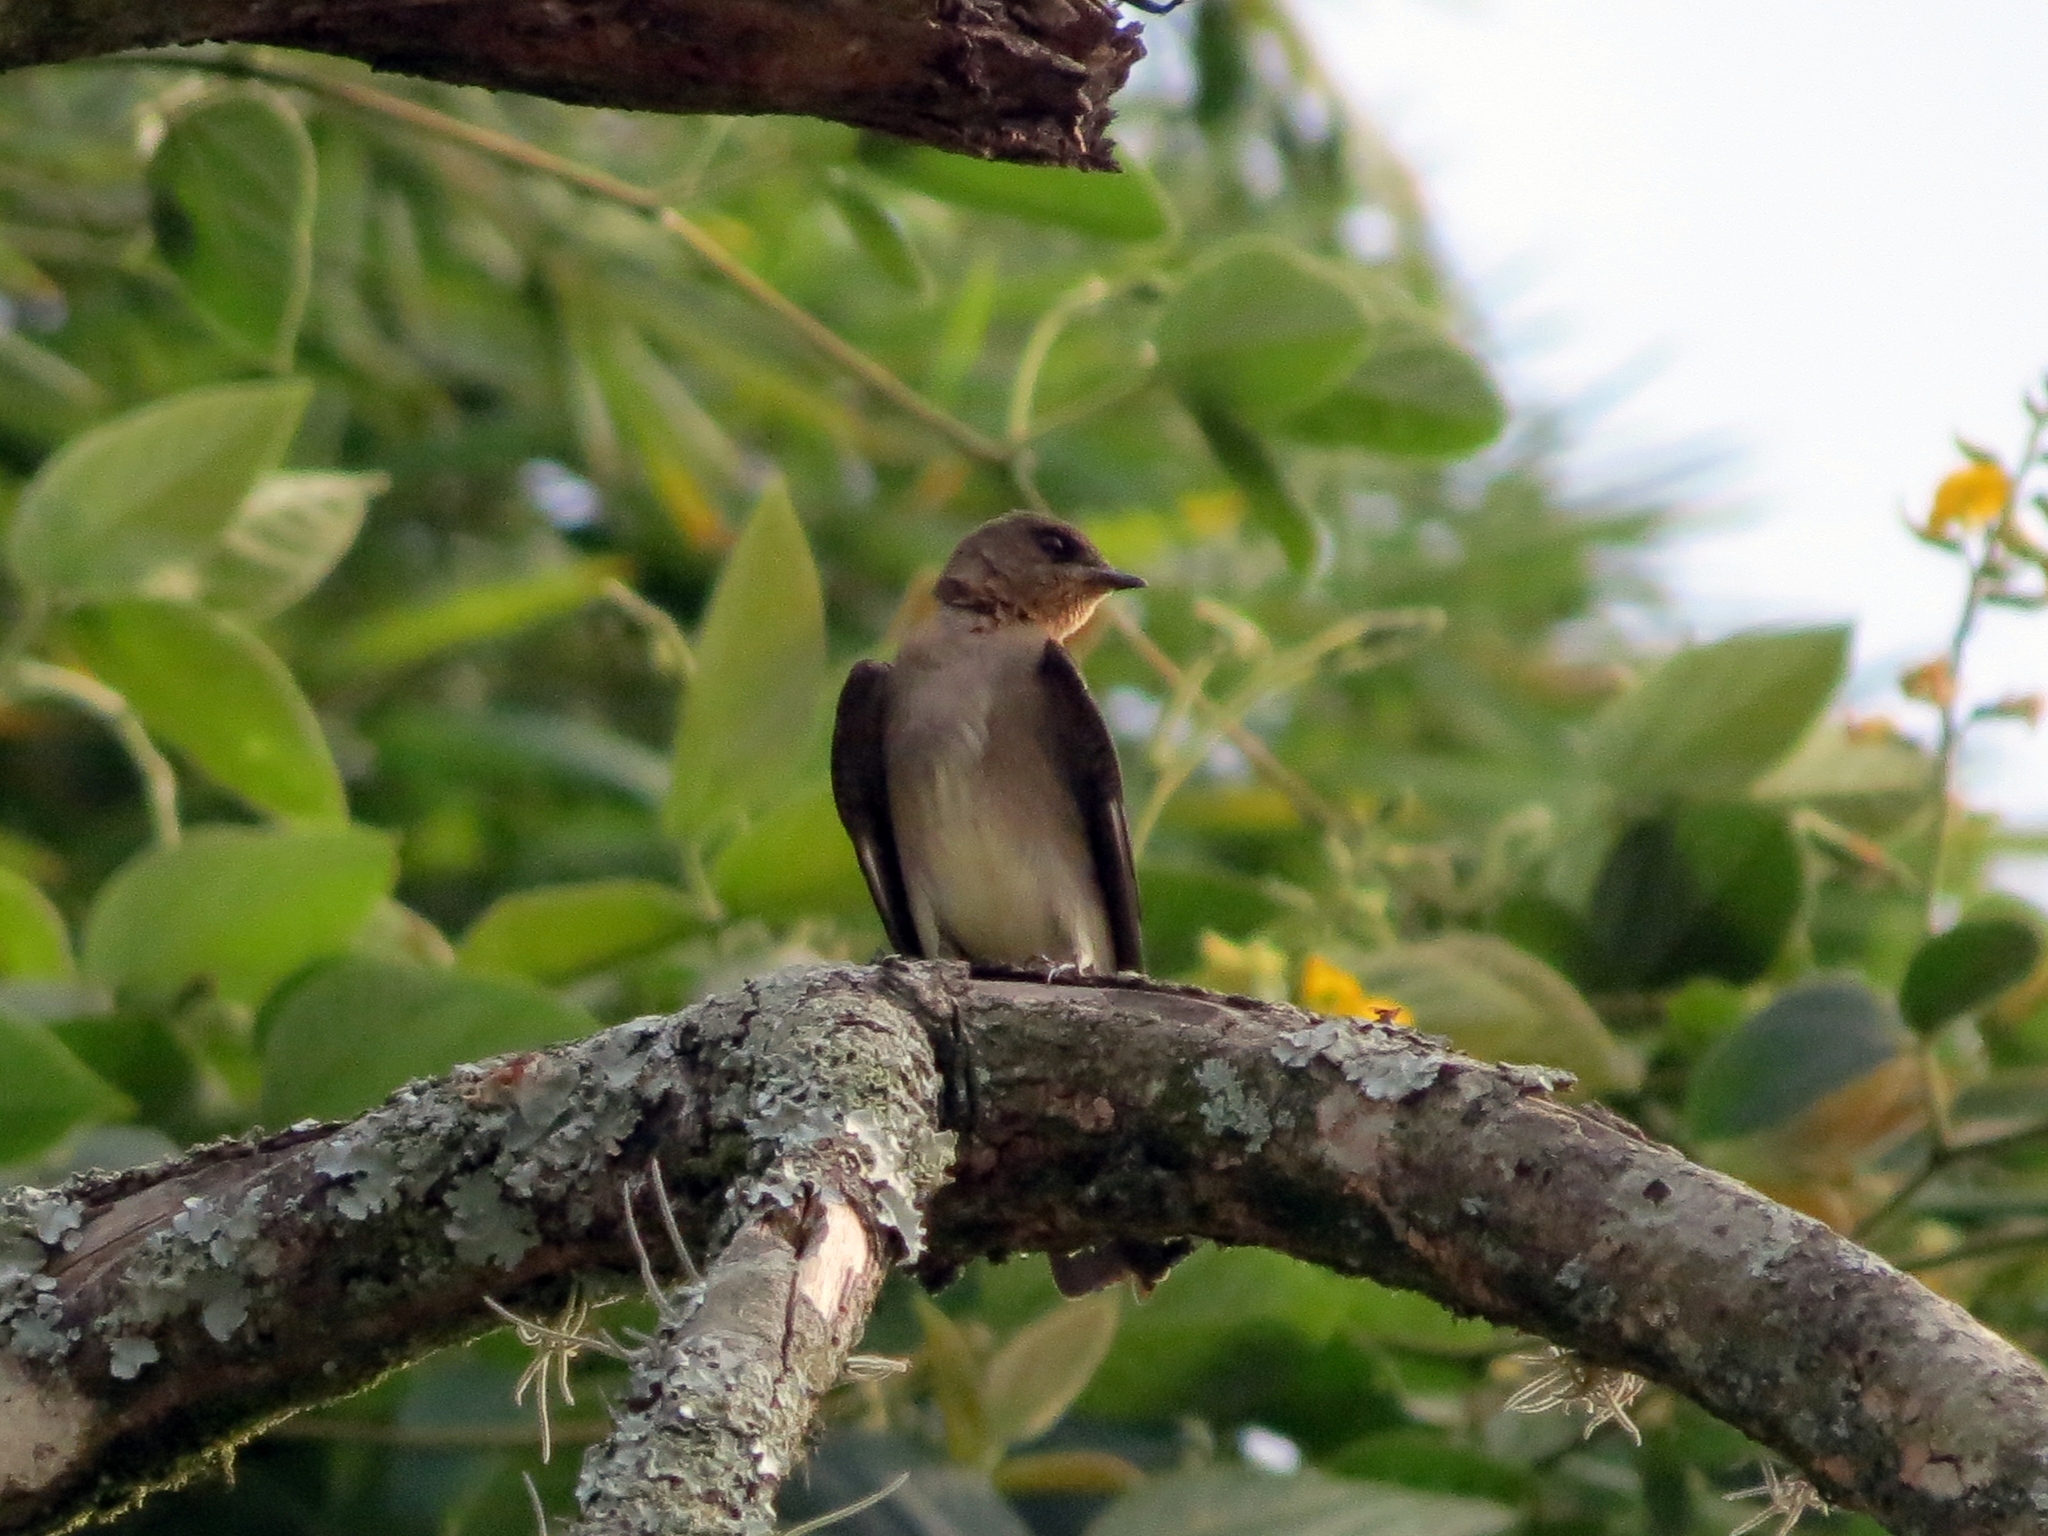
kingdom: Animalia
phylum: Chordata
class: Aves
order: Passeriformes
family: Hirundinidae
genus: Stelgidopteryx
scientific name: Stelgidopteryx ruficollis
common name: Southern rough-winged swallow
